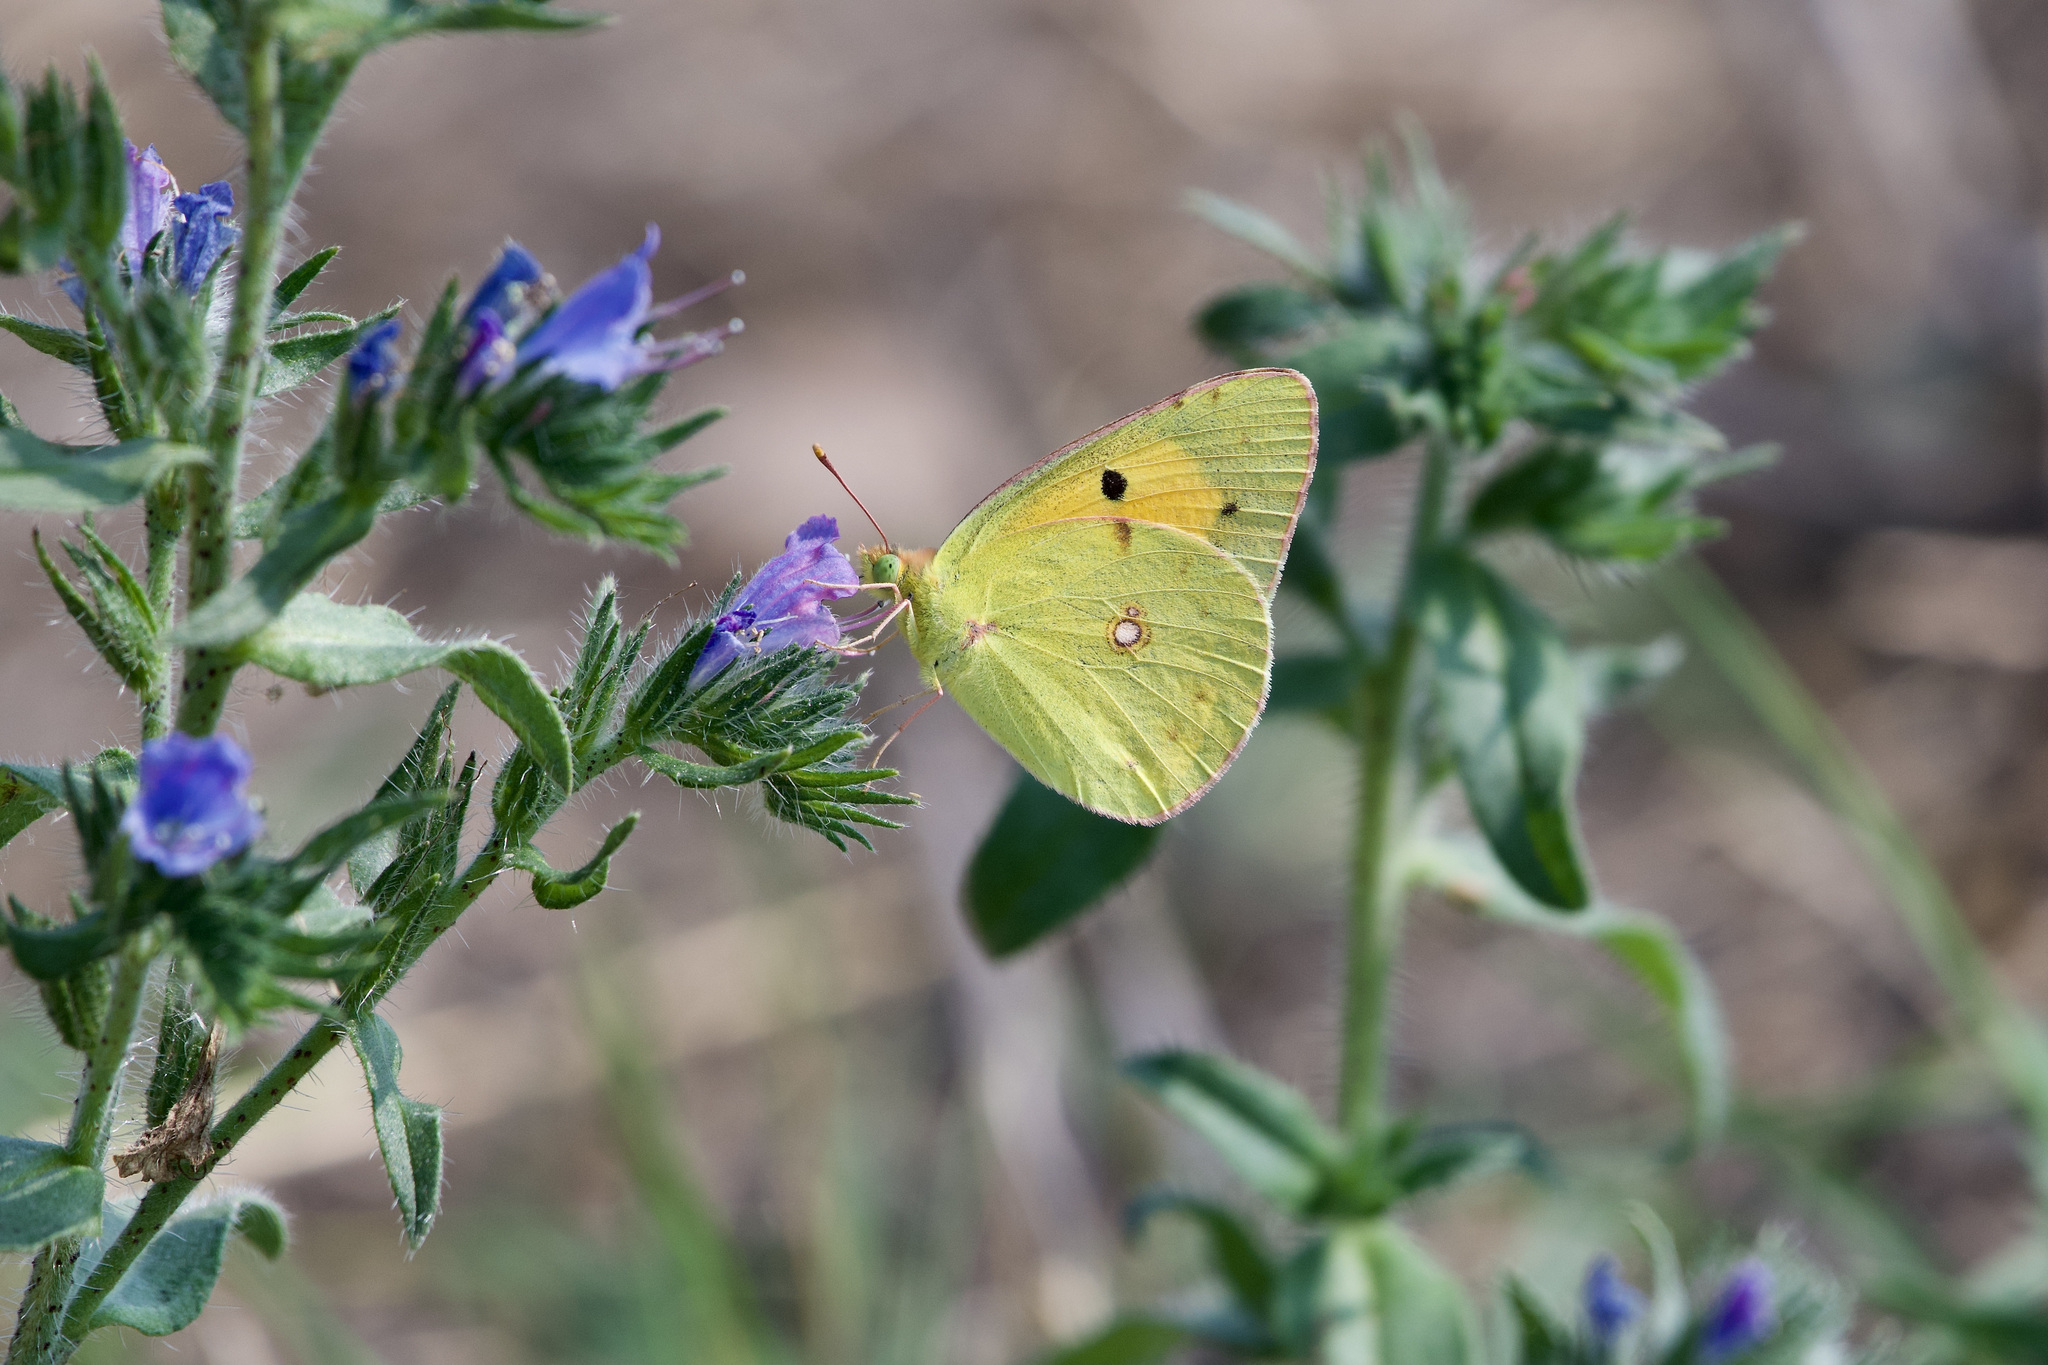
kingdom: Animalia
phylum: Arthropoda
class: Insecta
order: Lepidoptera
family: Pieridae
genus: Colias
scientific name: Colias croceus
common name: Clouded yellow
